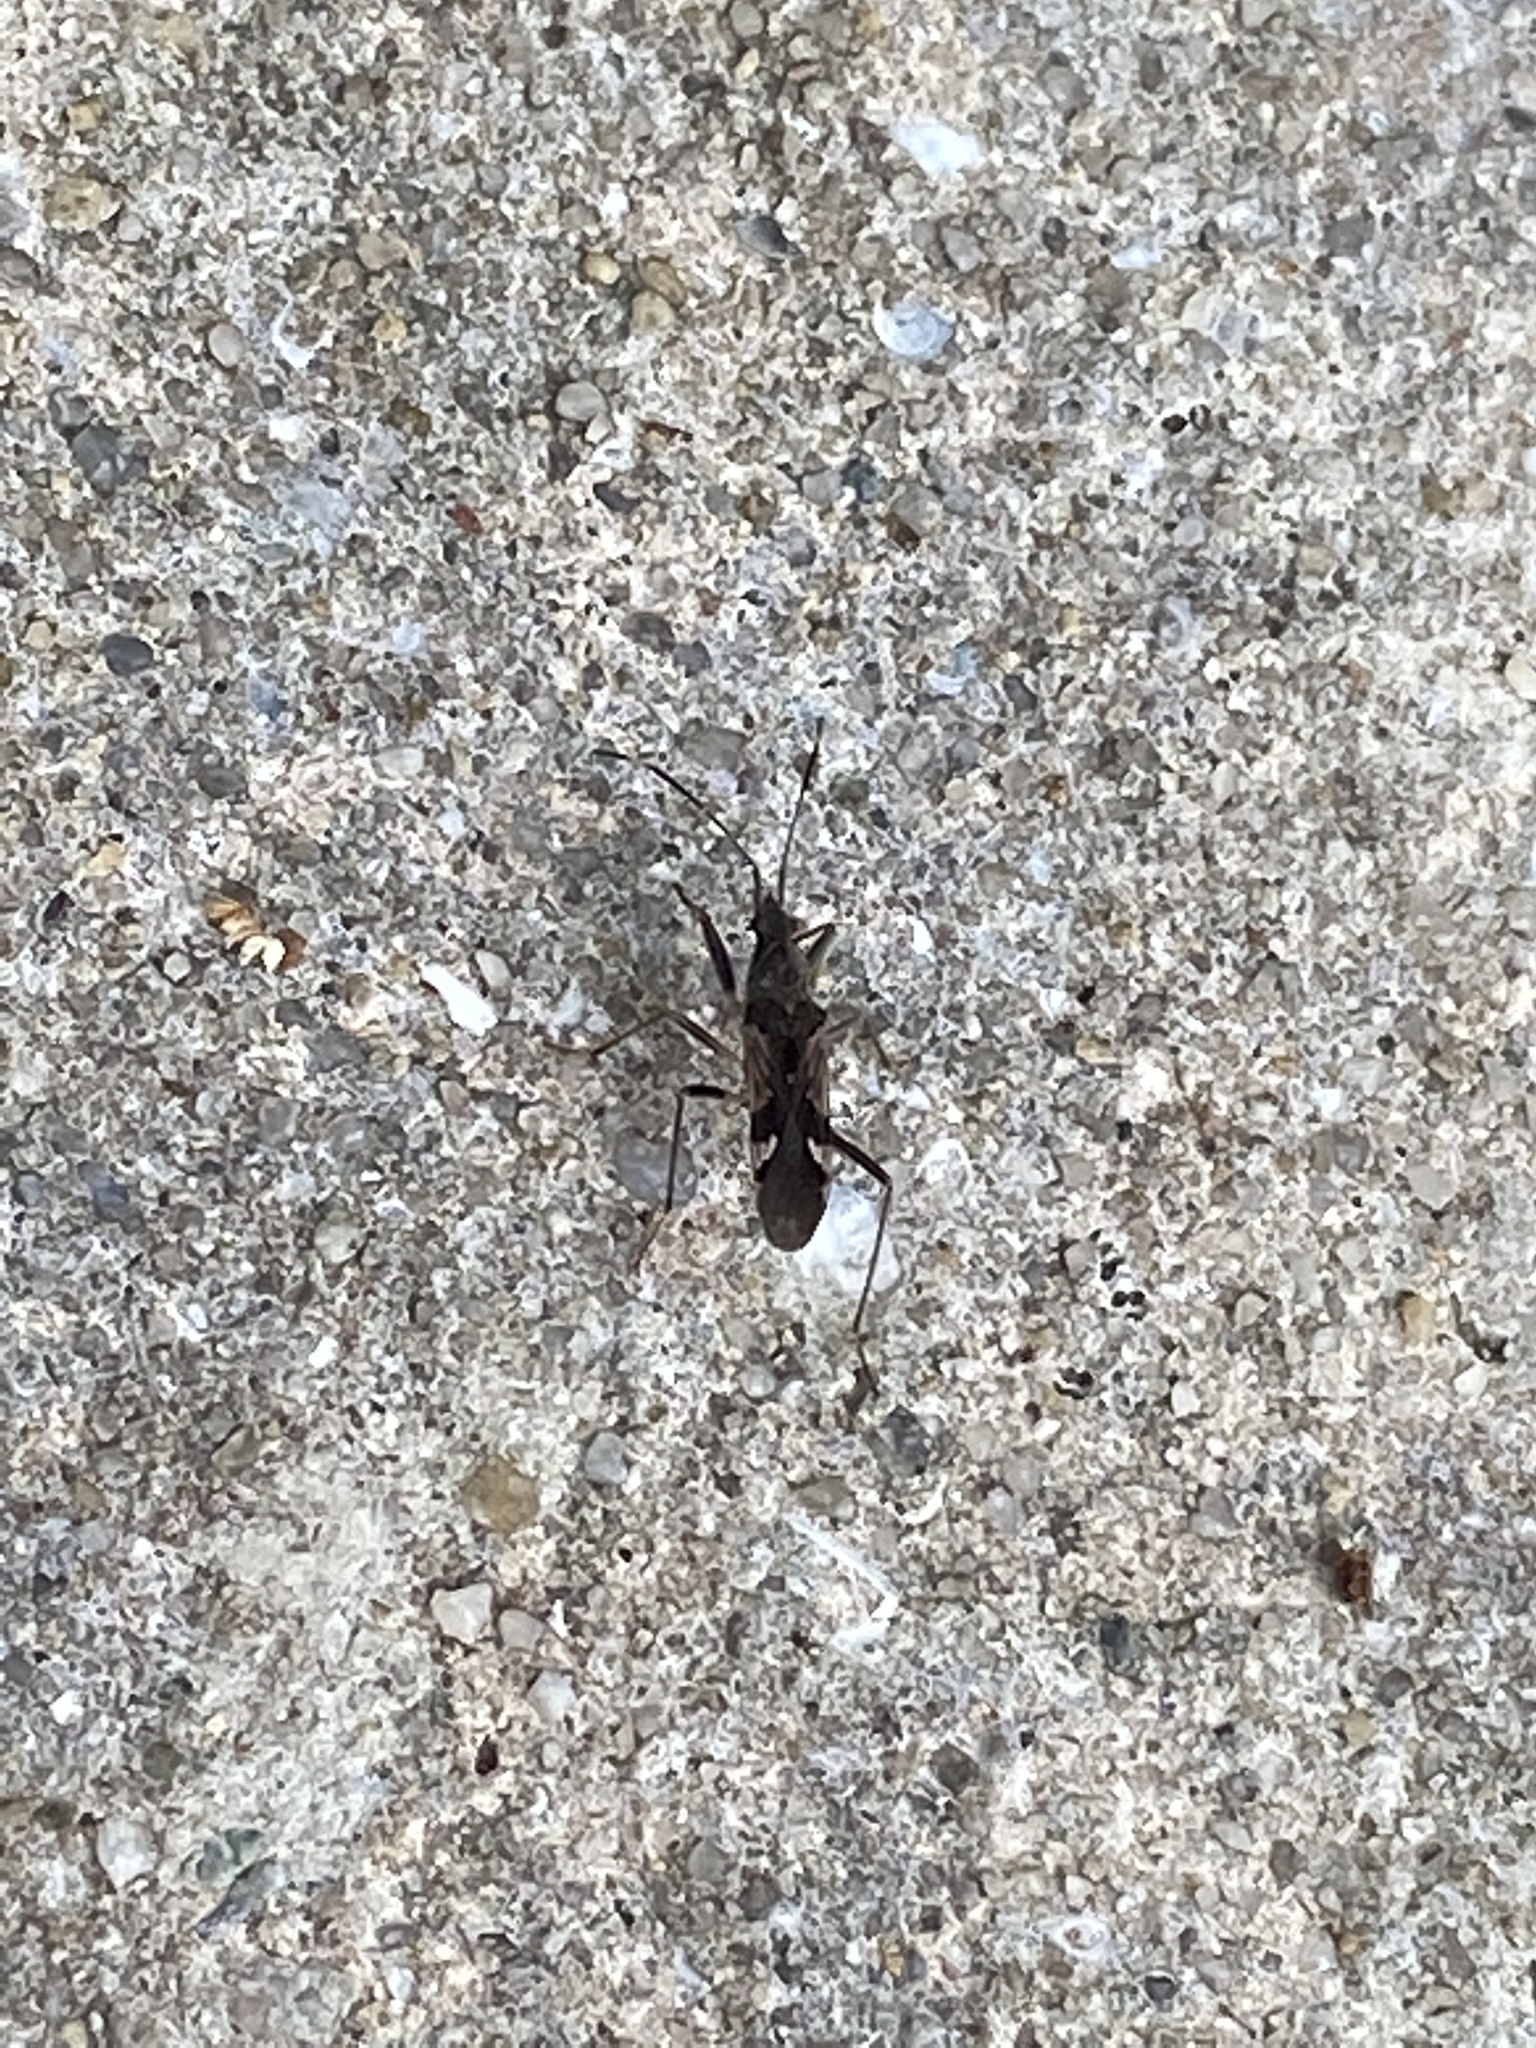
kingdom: Animalia
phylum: Arthropoda
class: Insecta
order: Hemiptera
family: Rhyparochromidae
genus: Metochus
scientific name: Metochus hainanensis
